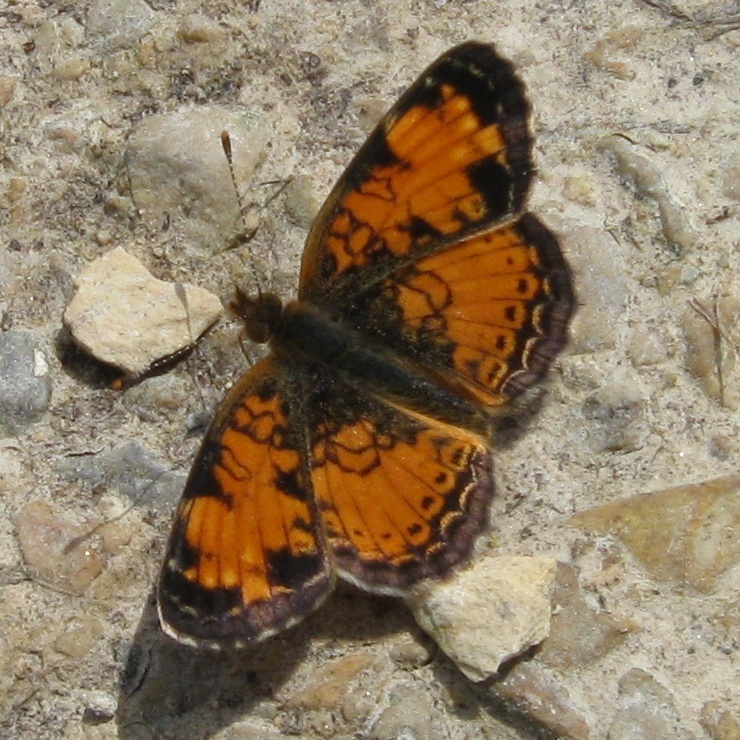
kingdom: Animalia
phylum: Arthropoda
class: Insecta
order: Lepidoptera
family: Nymphalidae
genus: Phyciodes
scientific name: Phyciodes tharos
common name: Pearl crescent
